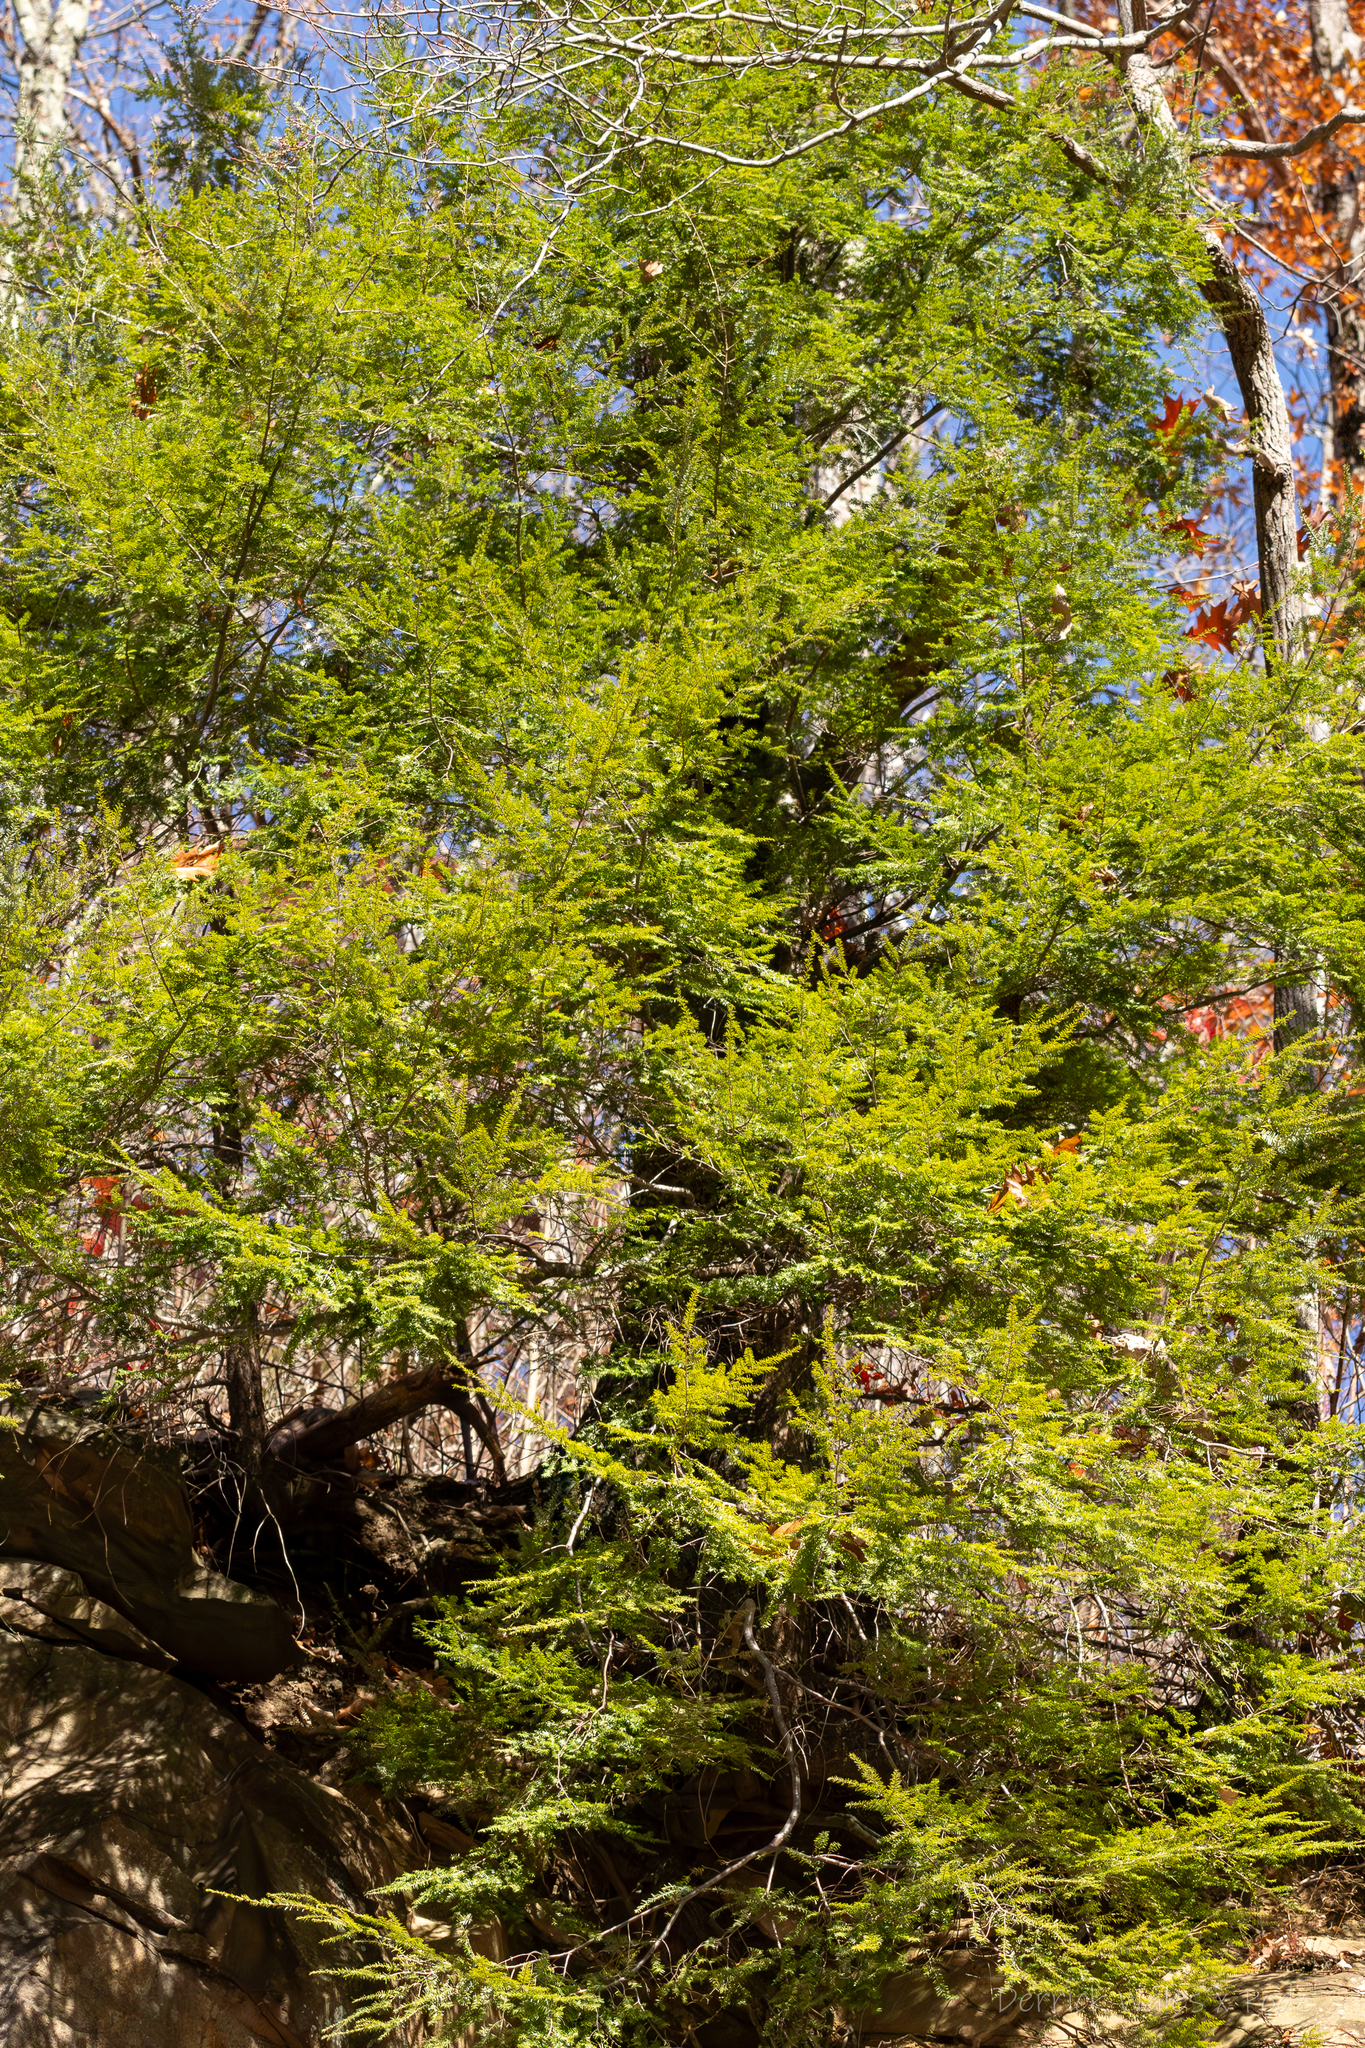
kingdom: Plantae
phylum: Tracheophyta
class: Pinopsida
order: Pinales
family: Pinaceae
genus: Tsuga
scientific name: Tsuga canadensis
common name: Eastern hemlock
